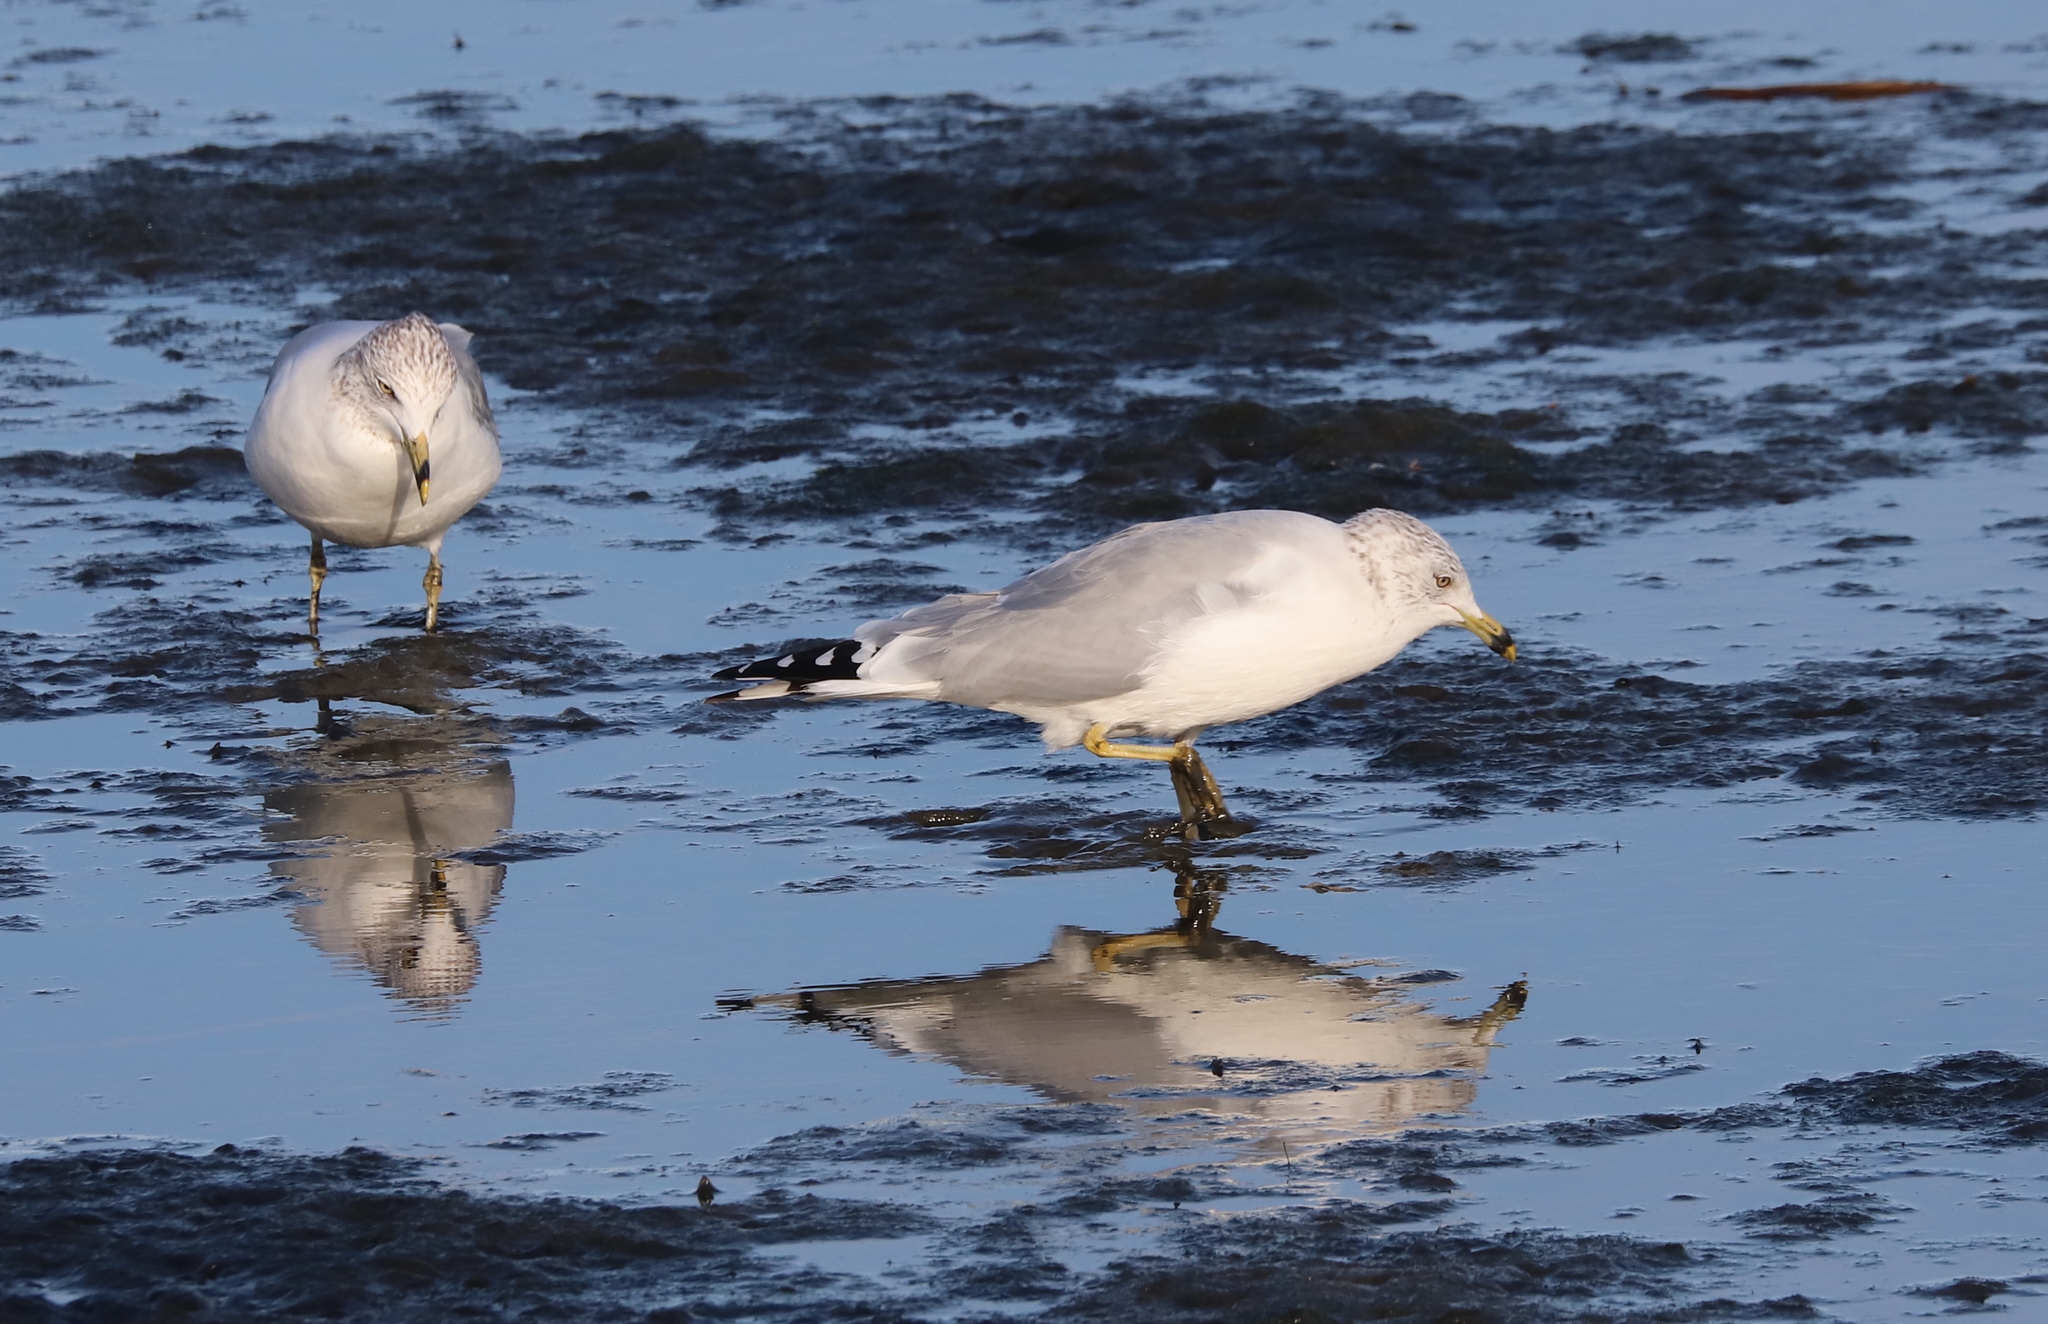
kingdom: Animalia
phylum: Chordata
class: Aves
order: Charadriiformes
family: Laridae
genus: Larus
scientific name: Larus delawarensis
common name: Ring-billed gull
